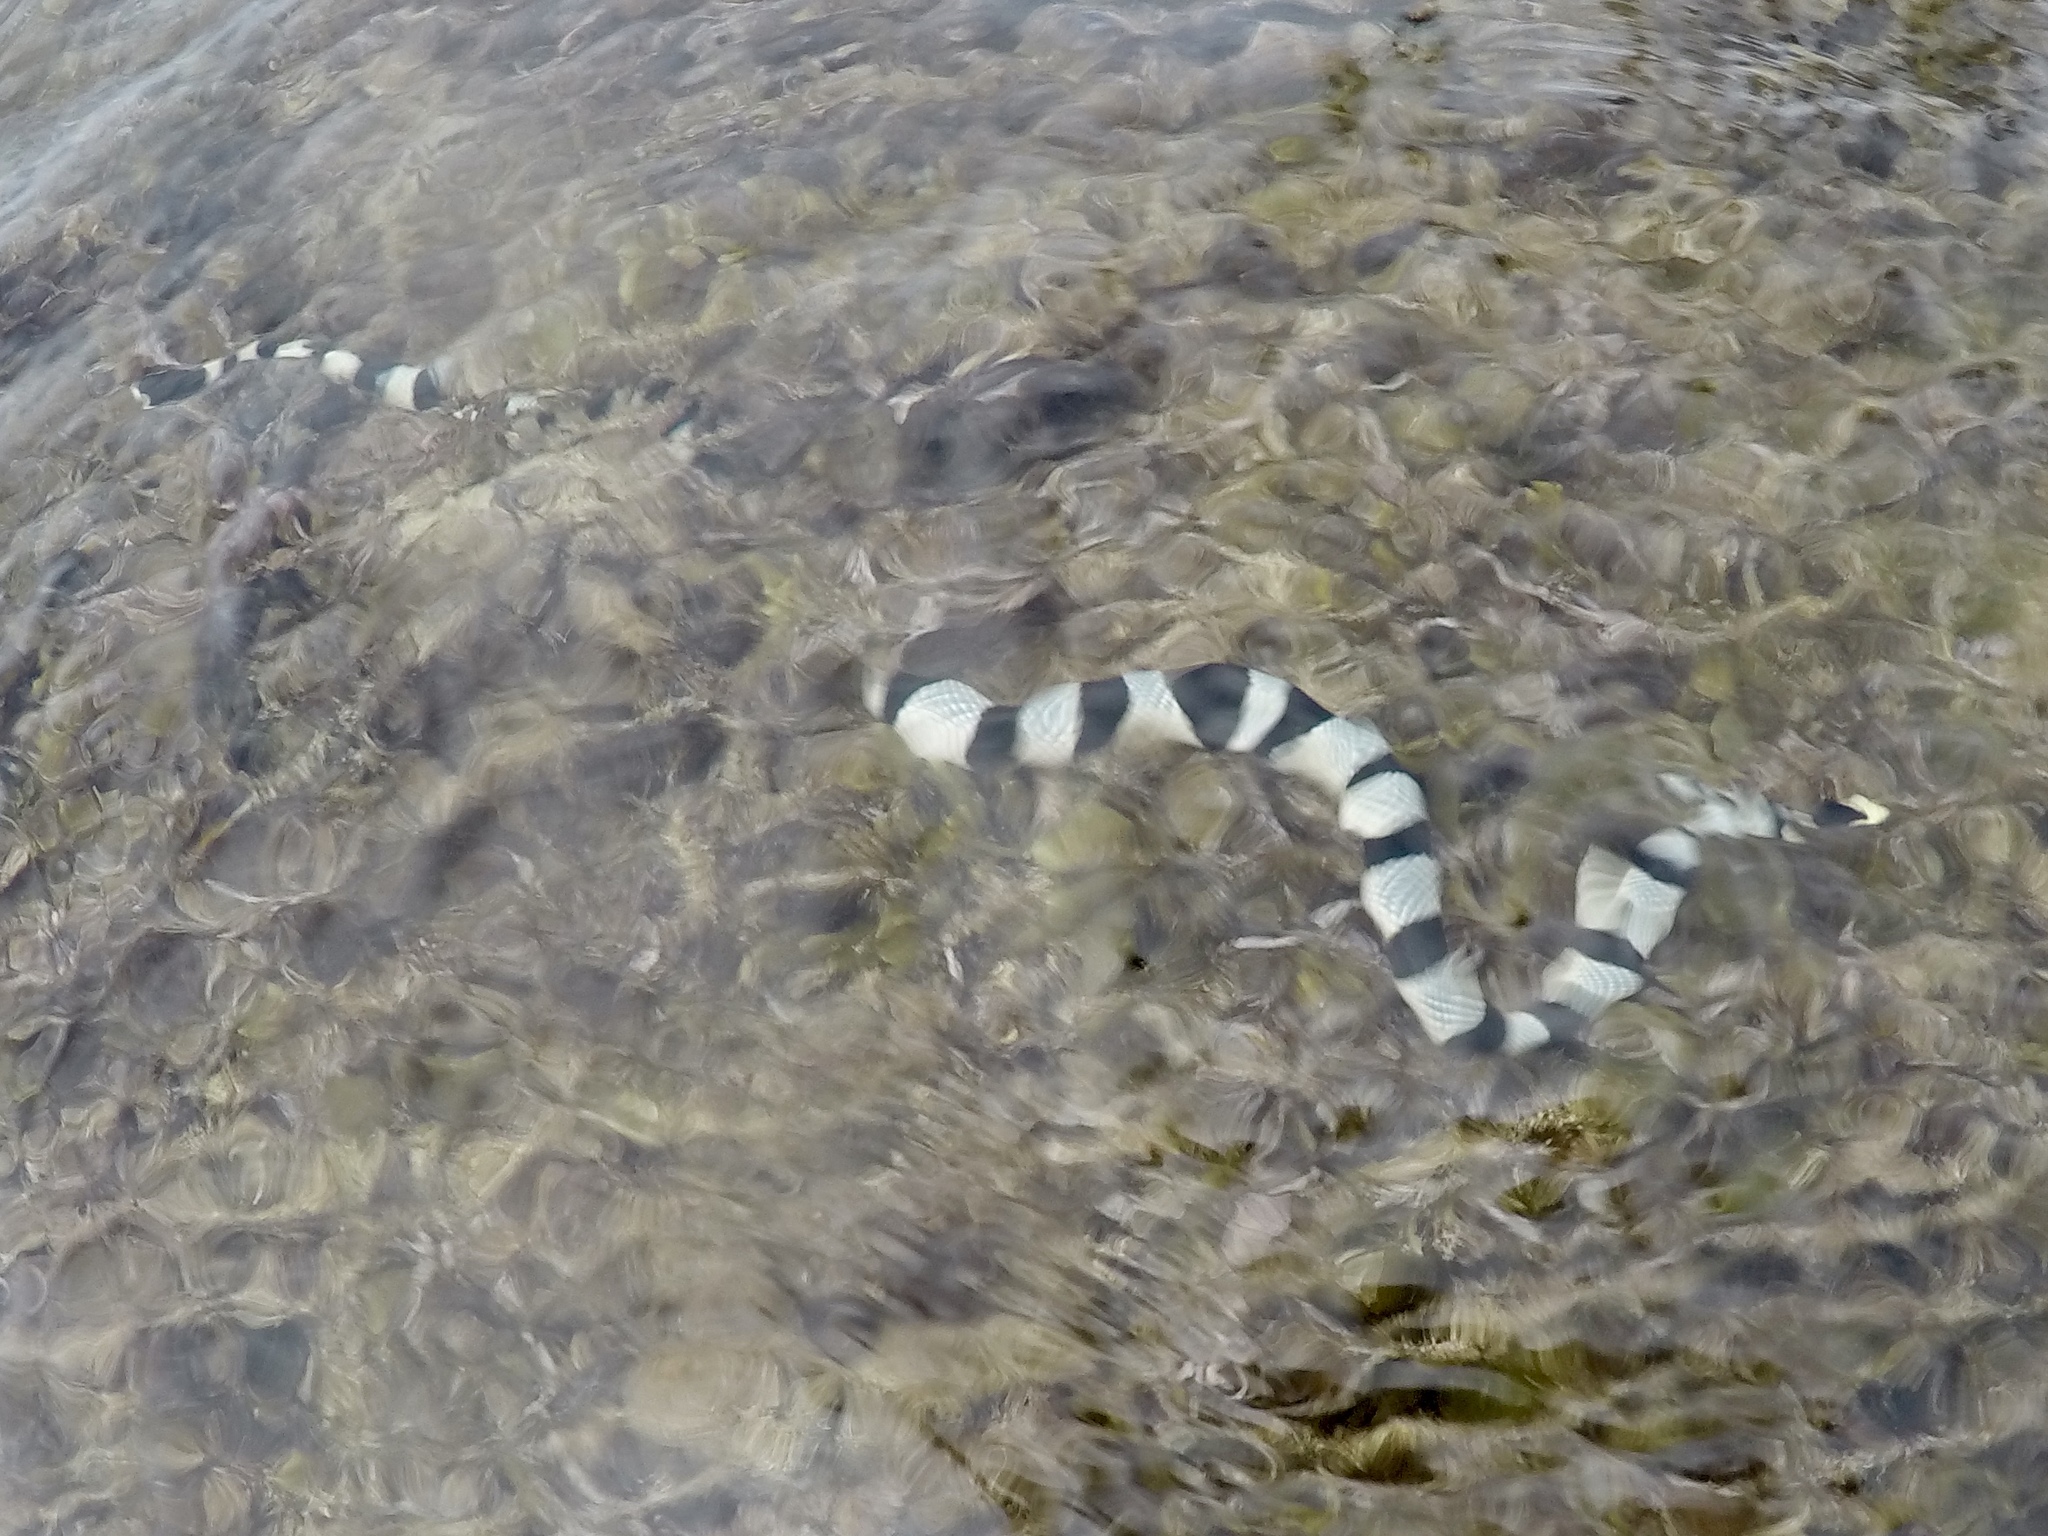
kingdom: Animalia
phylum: Chordata
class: Squamata
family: Elapidae
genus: Laticauda
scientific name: Laticauda colubrina
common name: Yellow-lipped sea krait
